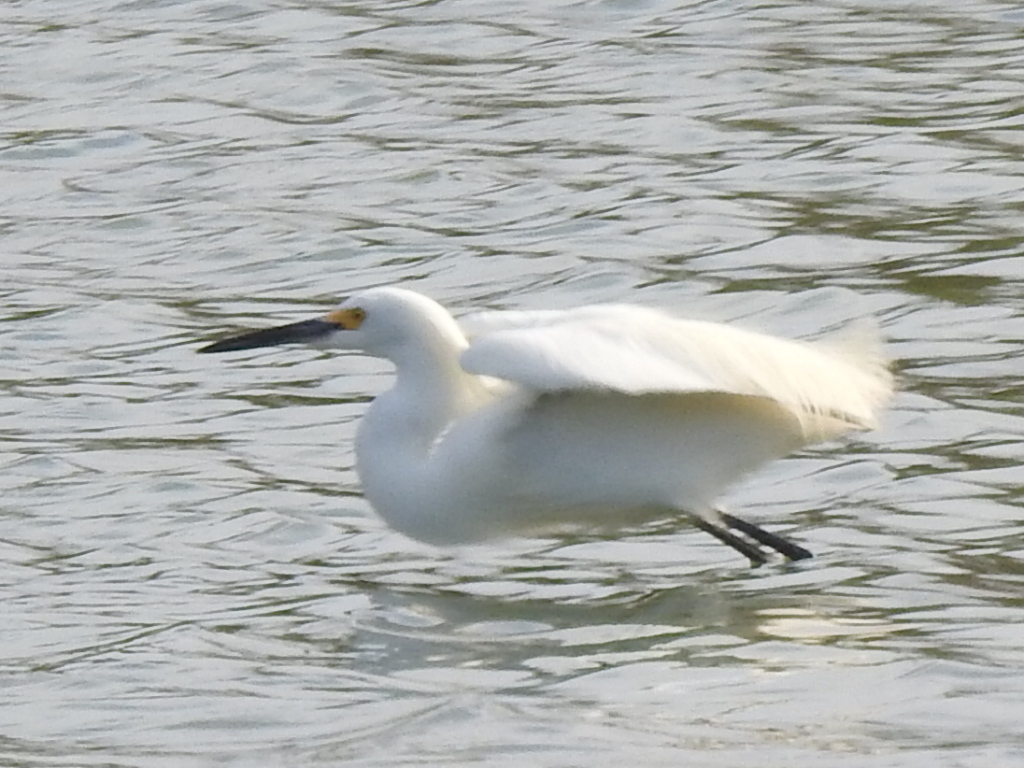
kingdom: Animalia
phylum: Chordata
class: Aves
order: Pelecaniformes
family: Ardeidae
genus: Egretta
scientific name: Egretta thula
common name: Snowy egret
